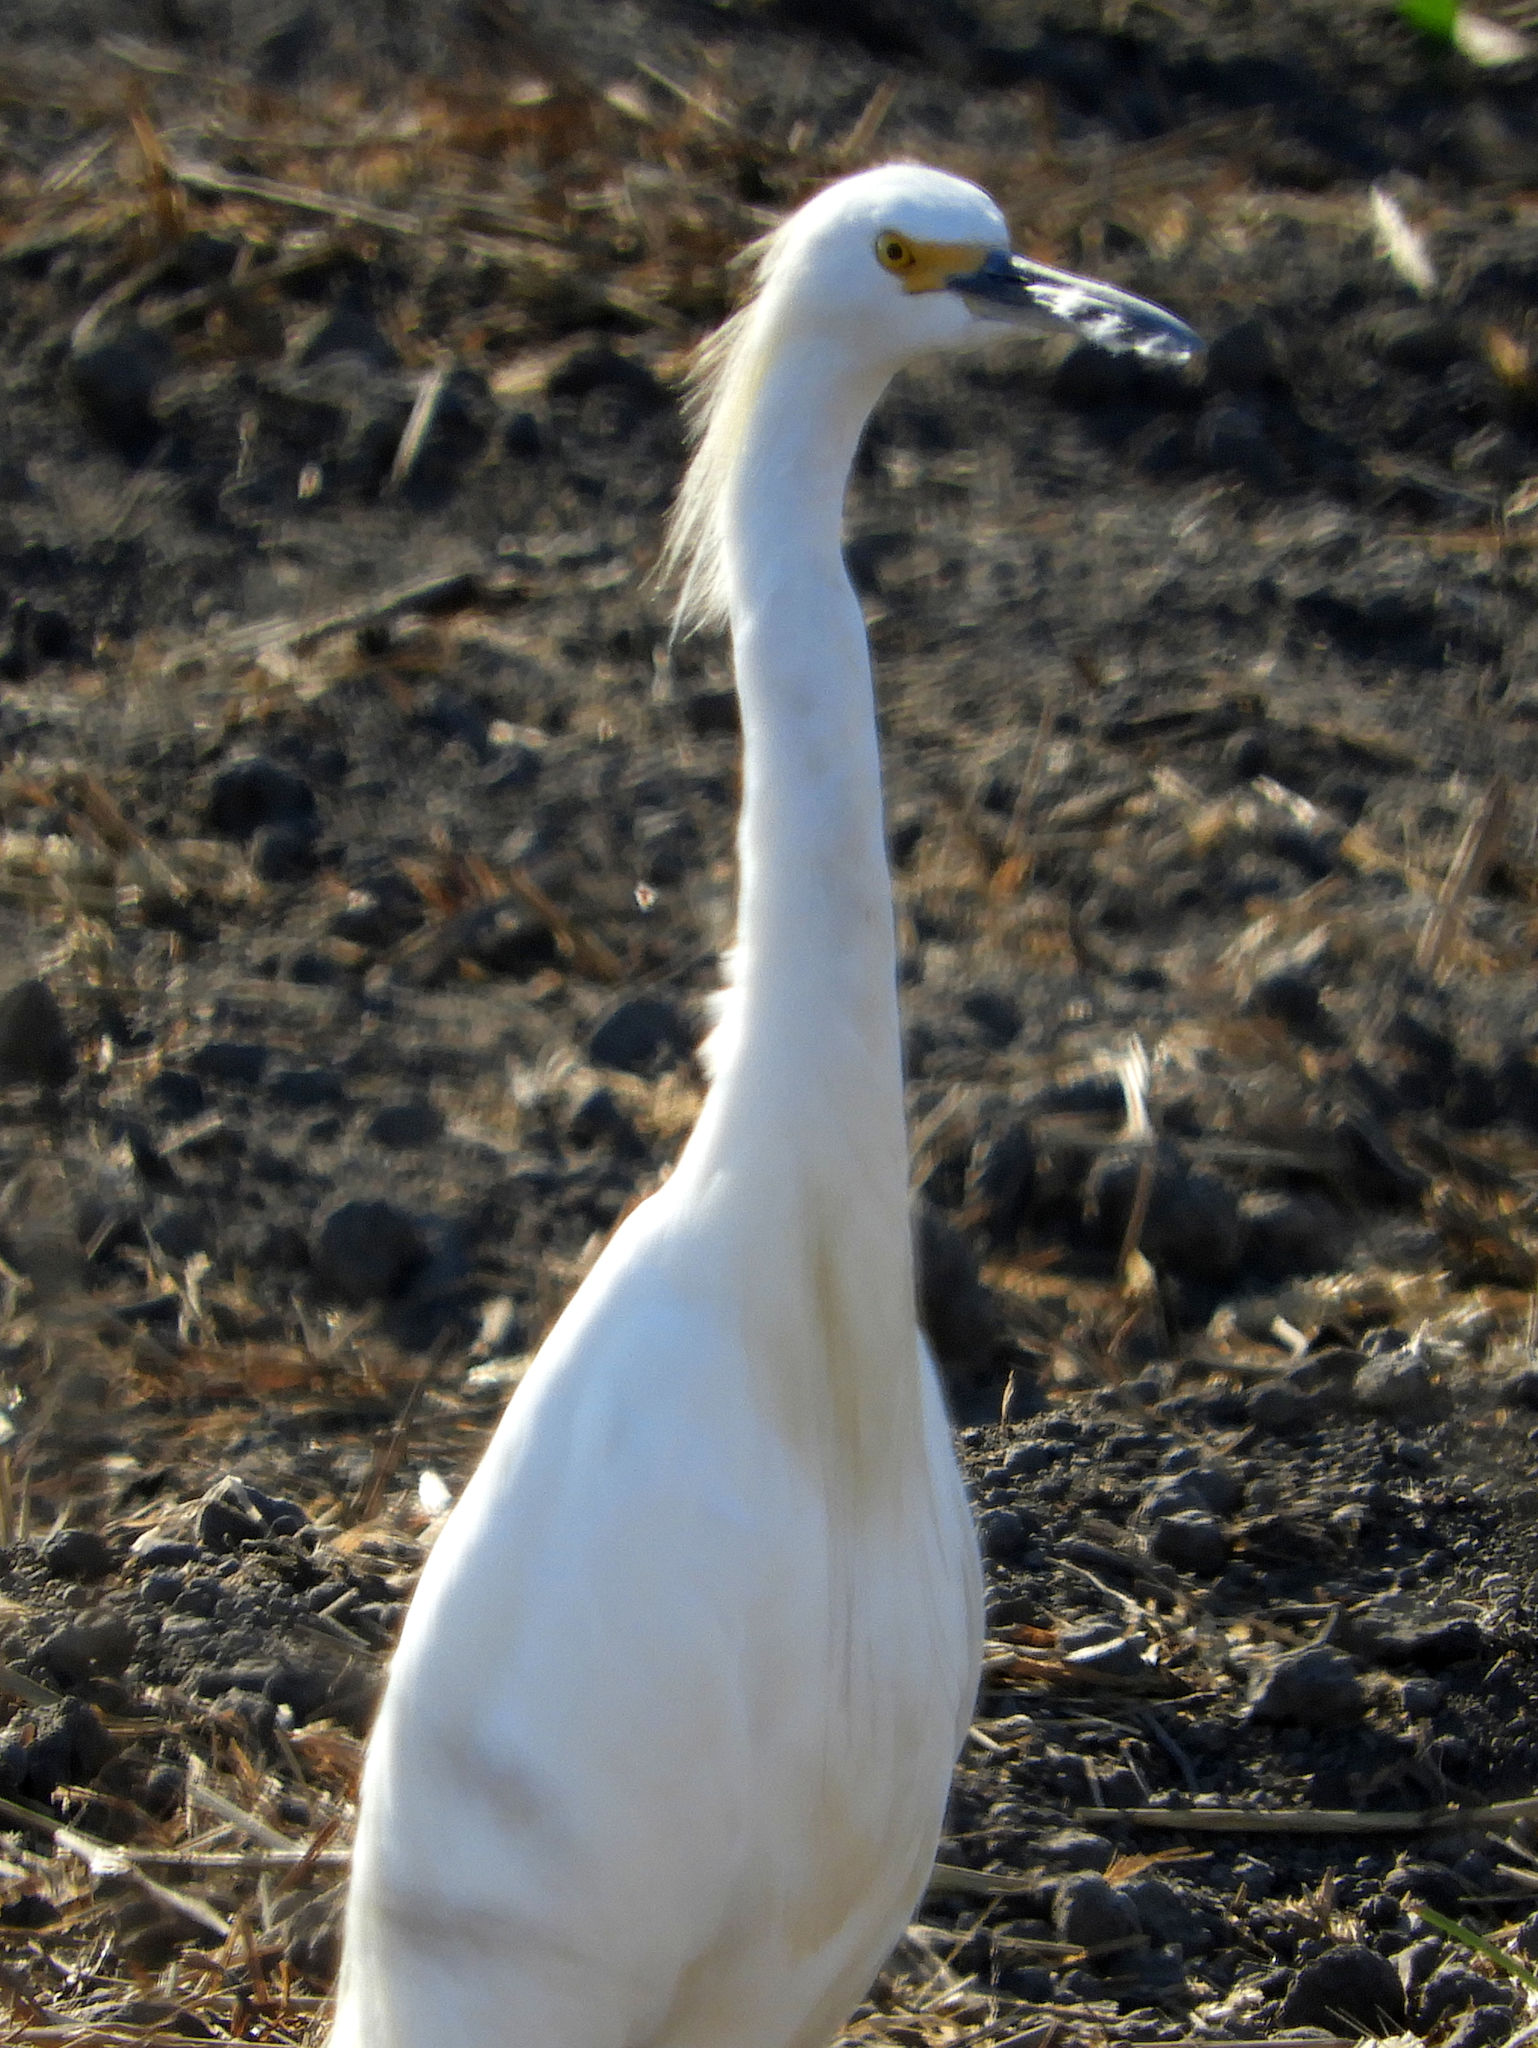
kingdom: Animalia
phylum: Chordata
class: Aves
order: Pelecaniformes
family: Ardeidae
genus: Egretta
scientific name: Egretta thula
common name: Snowy egret
